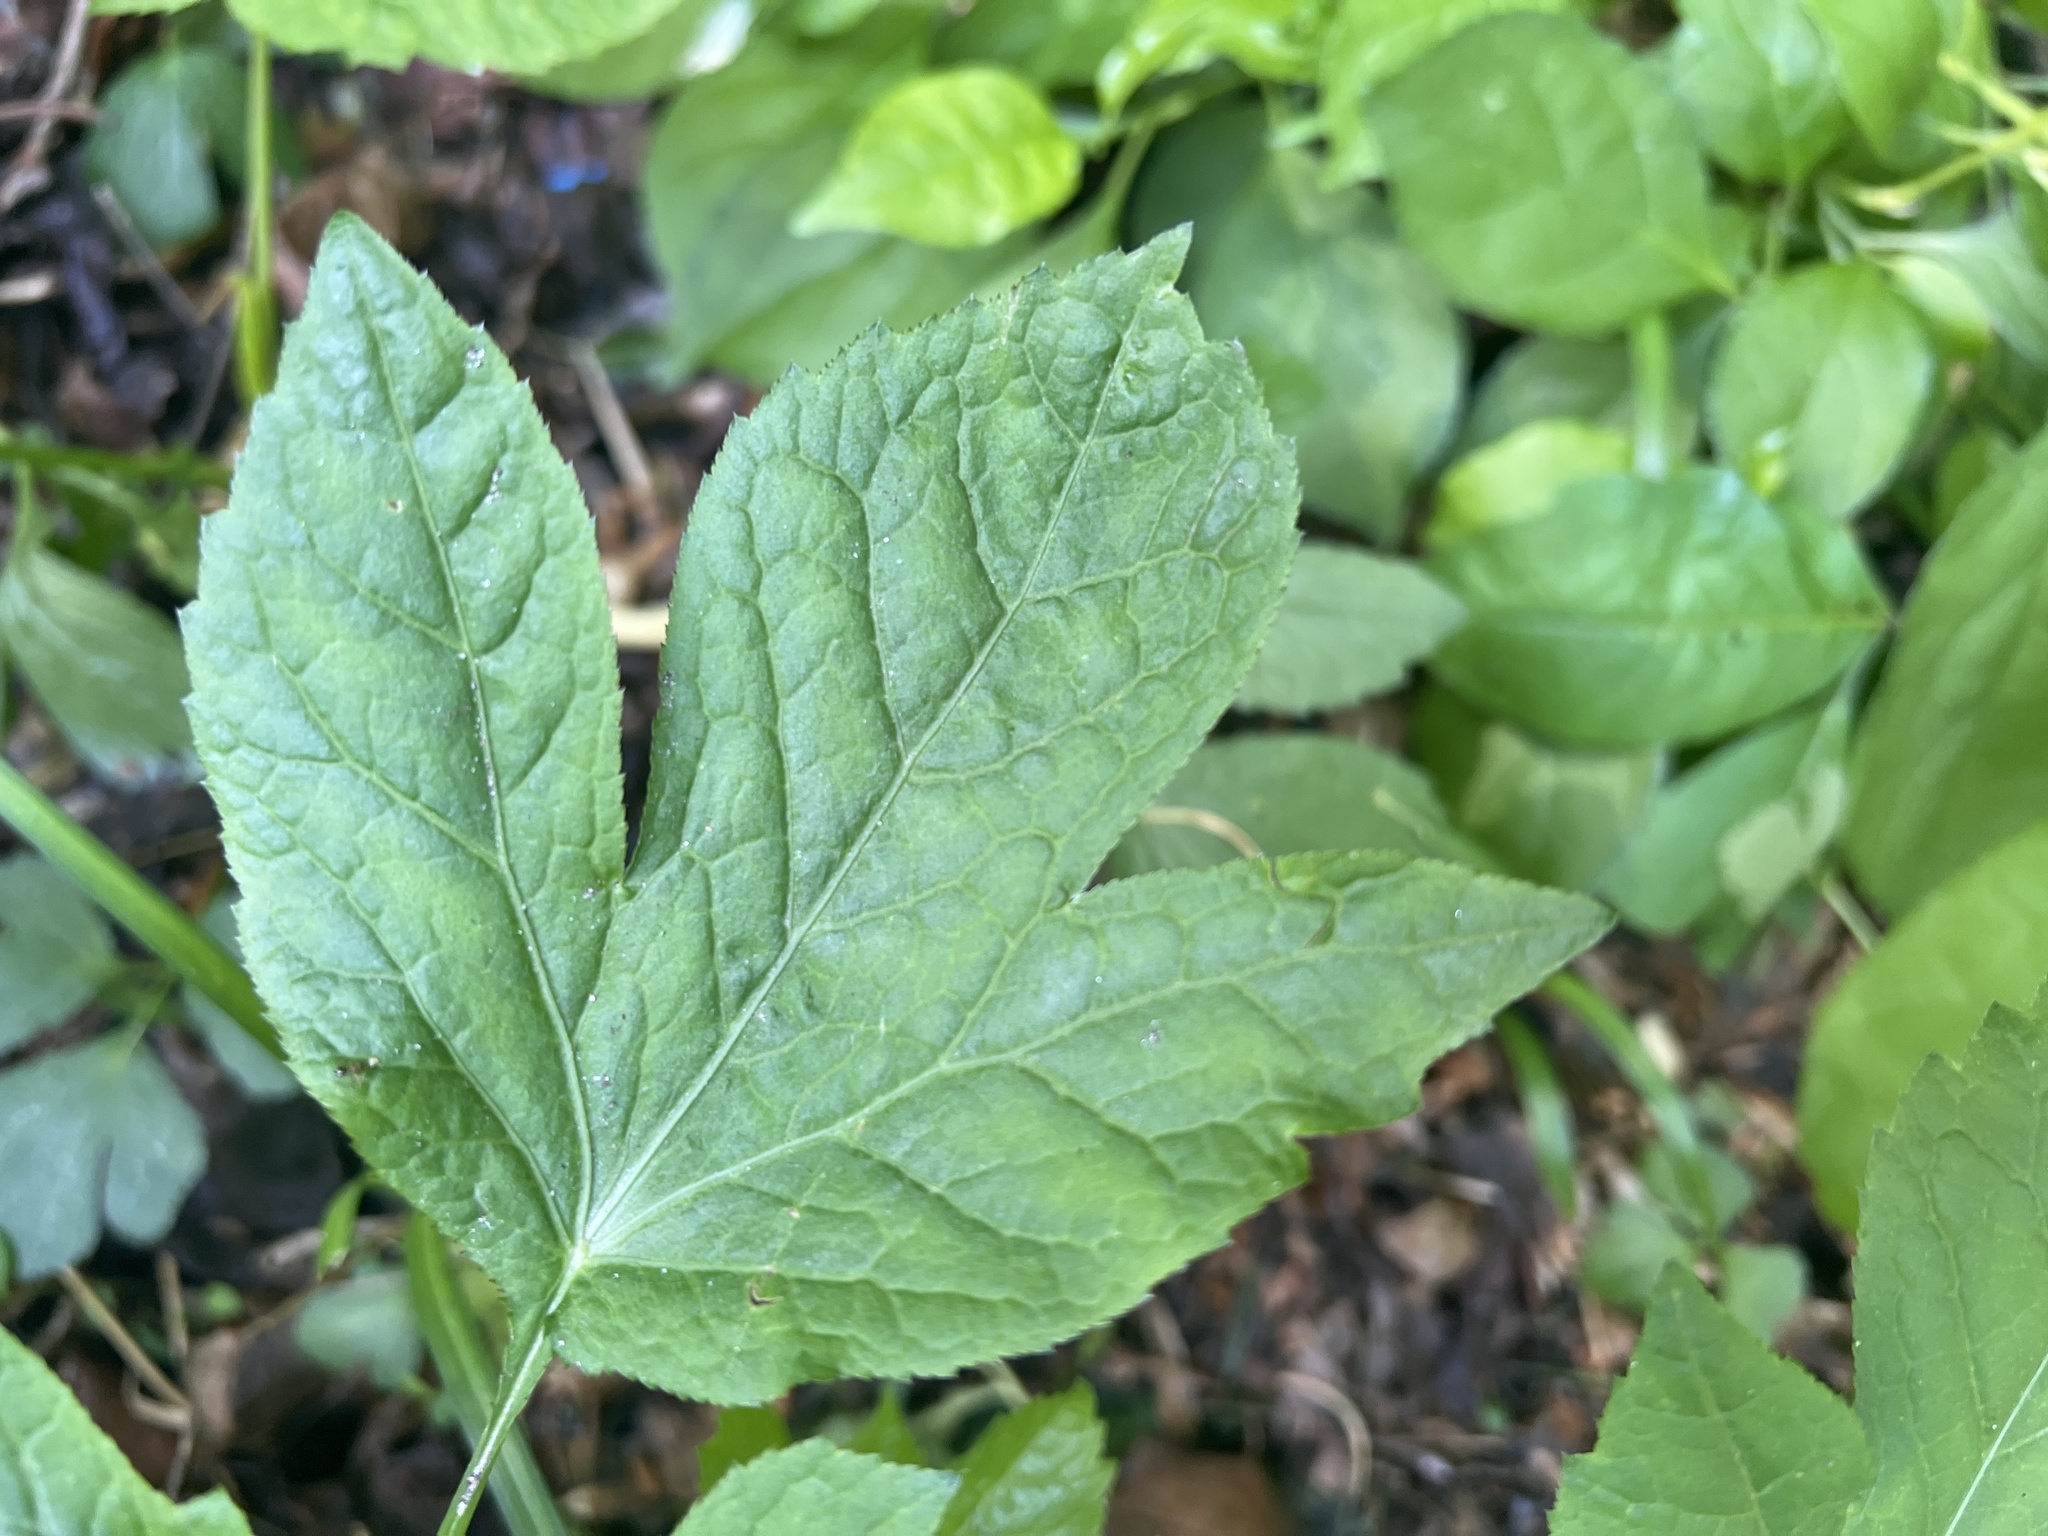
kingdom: Plantae
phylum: Tracheophyta
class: Magnoliopsida
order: Asterales
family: Asteraceae
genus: Ambrosia
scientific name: Ambrosia trifida
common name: Giant ragweed
